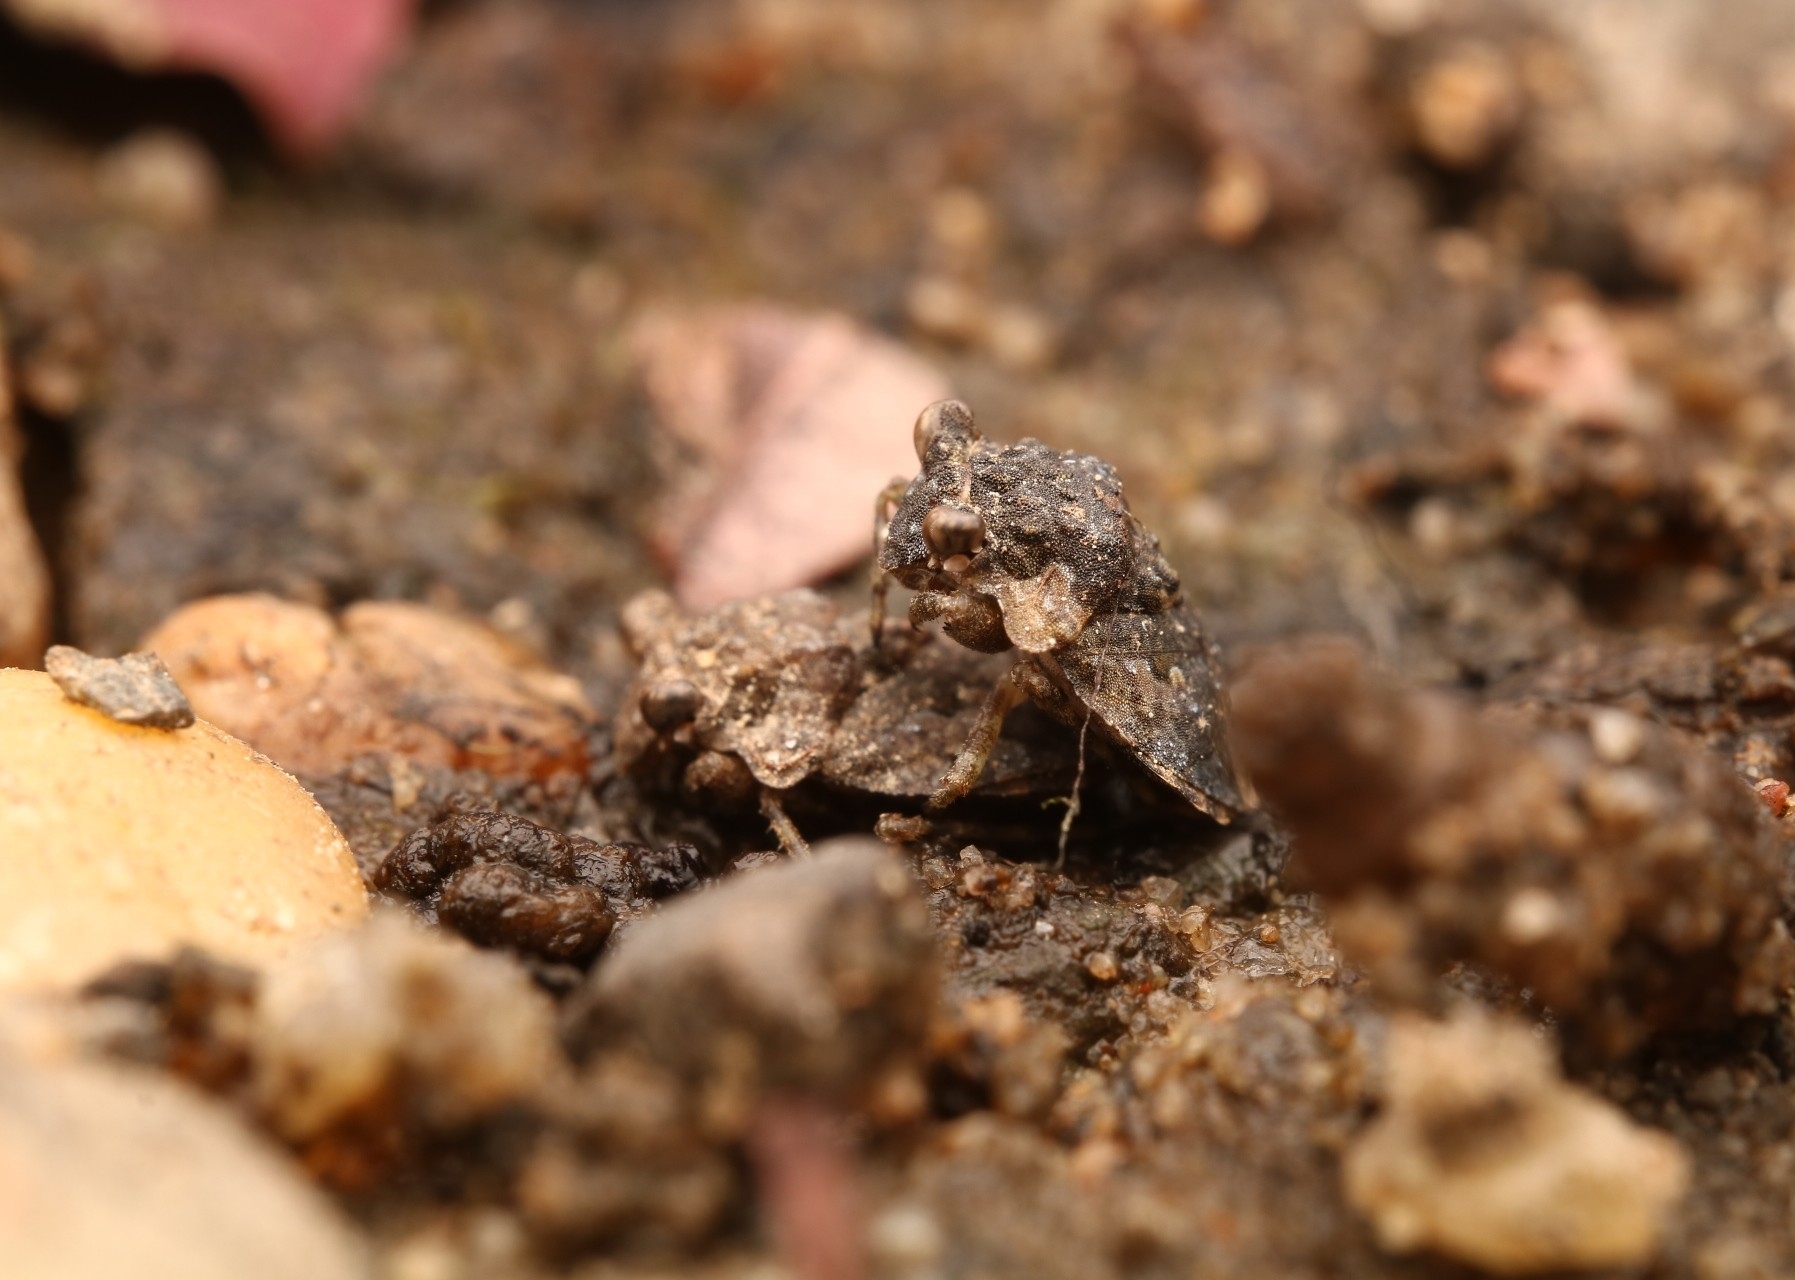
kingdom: Animalia
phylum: Arthropoda
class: Insecta
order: Hemiptera
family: Gelastocoridae
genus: Gelastocoris
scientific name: Gelastocoris oculatus
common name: Toad bug
